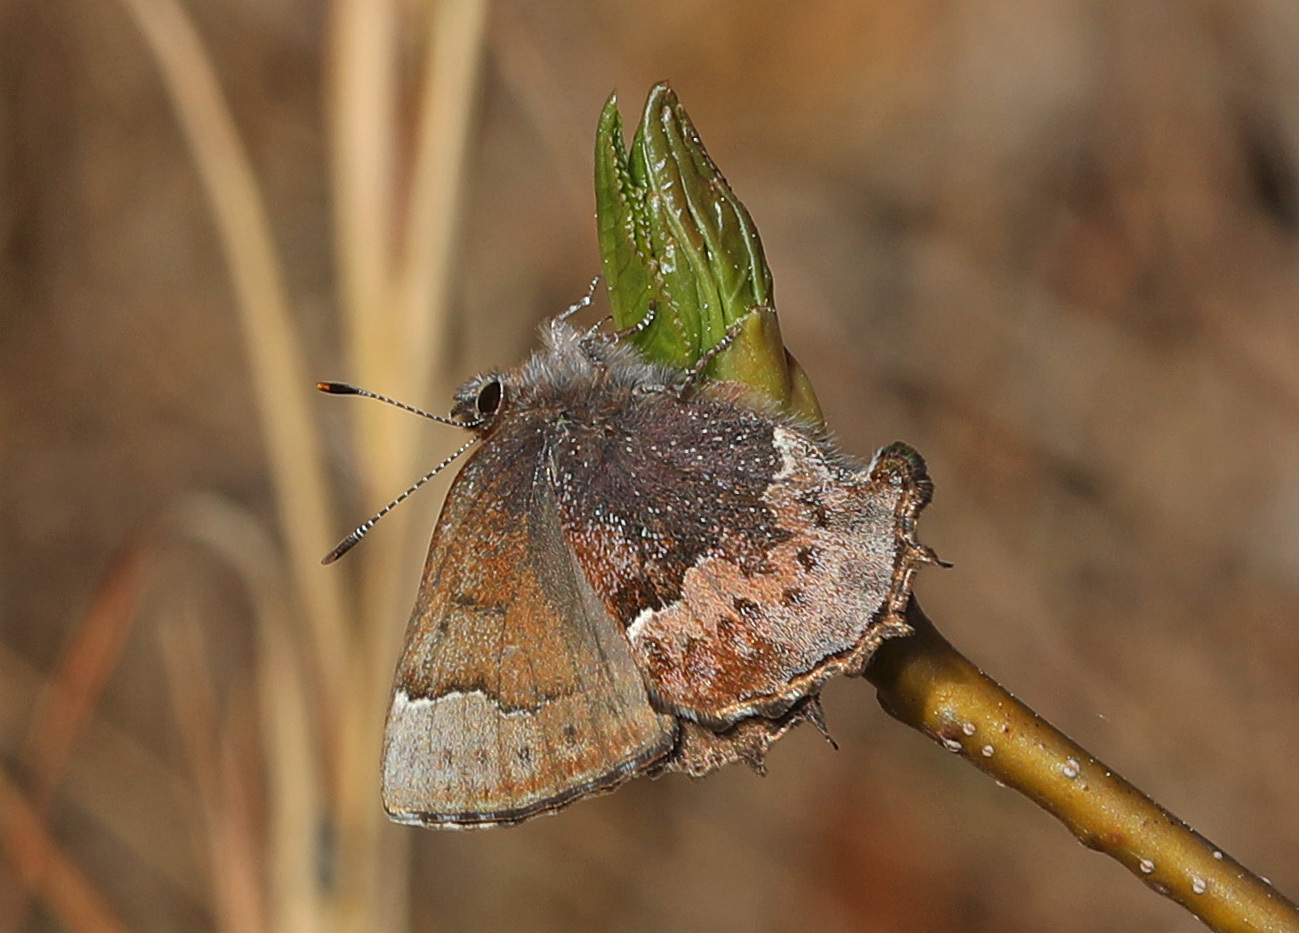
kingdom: Animalia
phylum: Arthropoda
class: Insecta
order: Lepidoptera
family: Lycaenidae
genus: Incisalia
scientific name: Incisalia henrici
